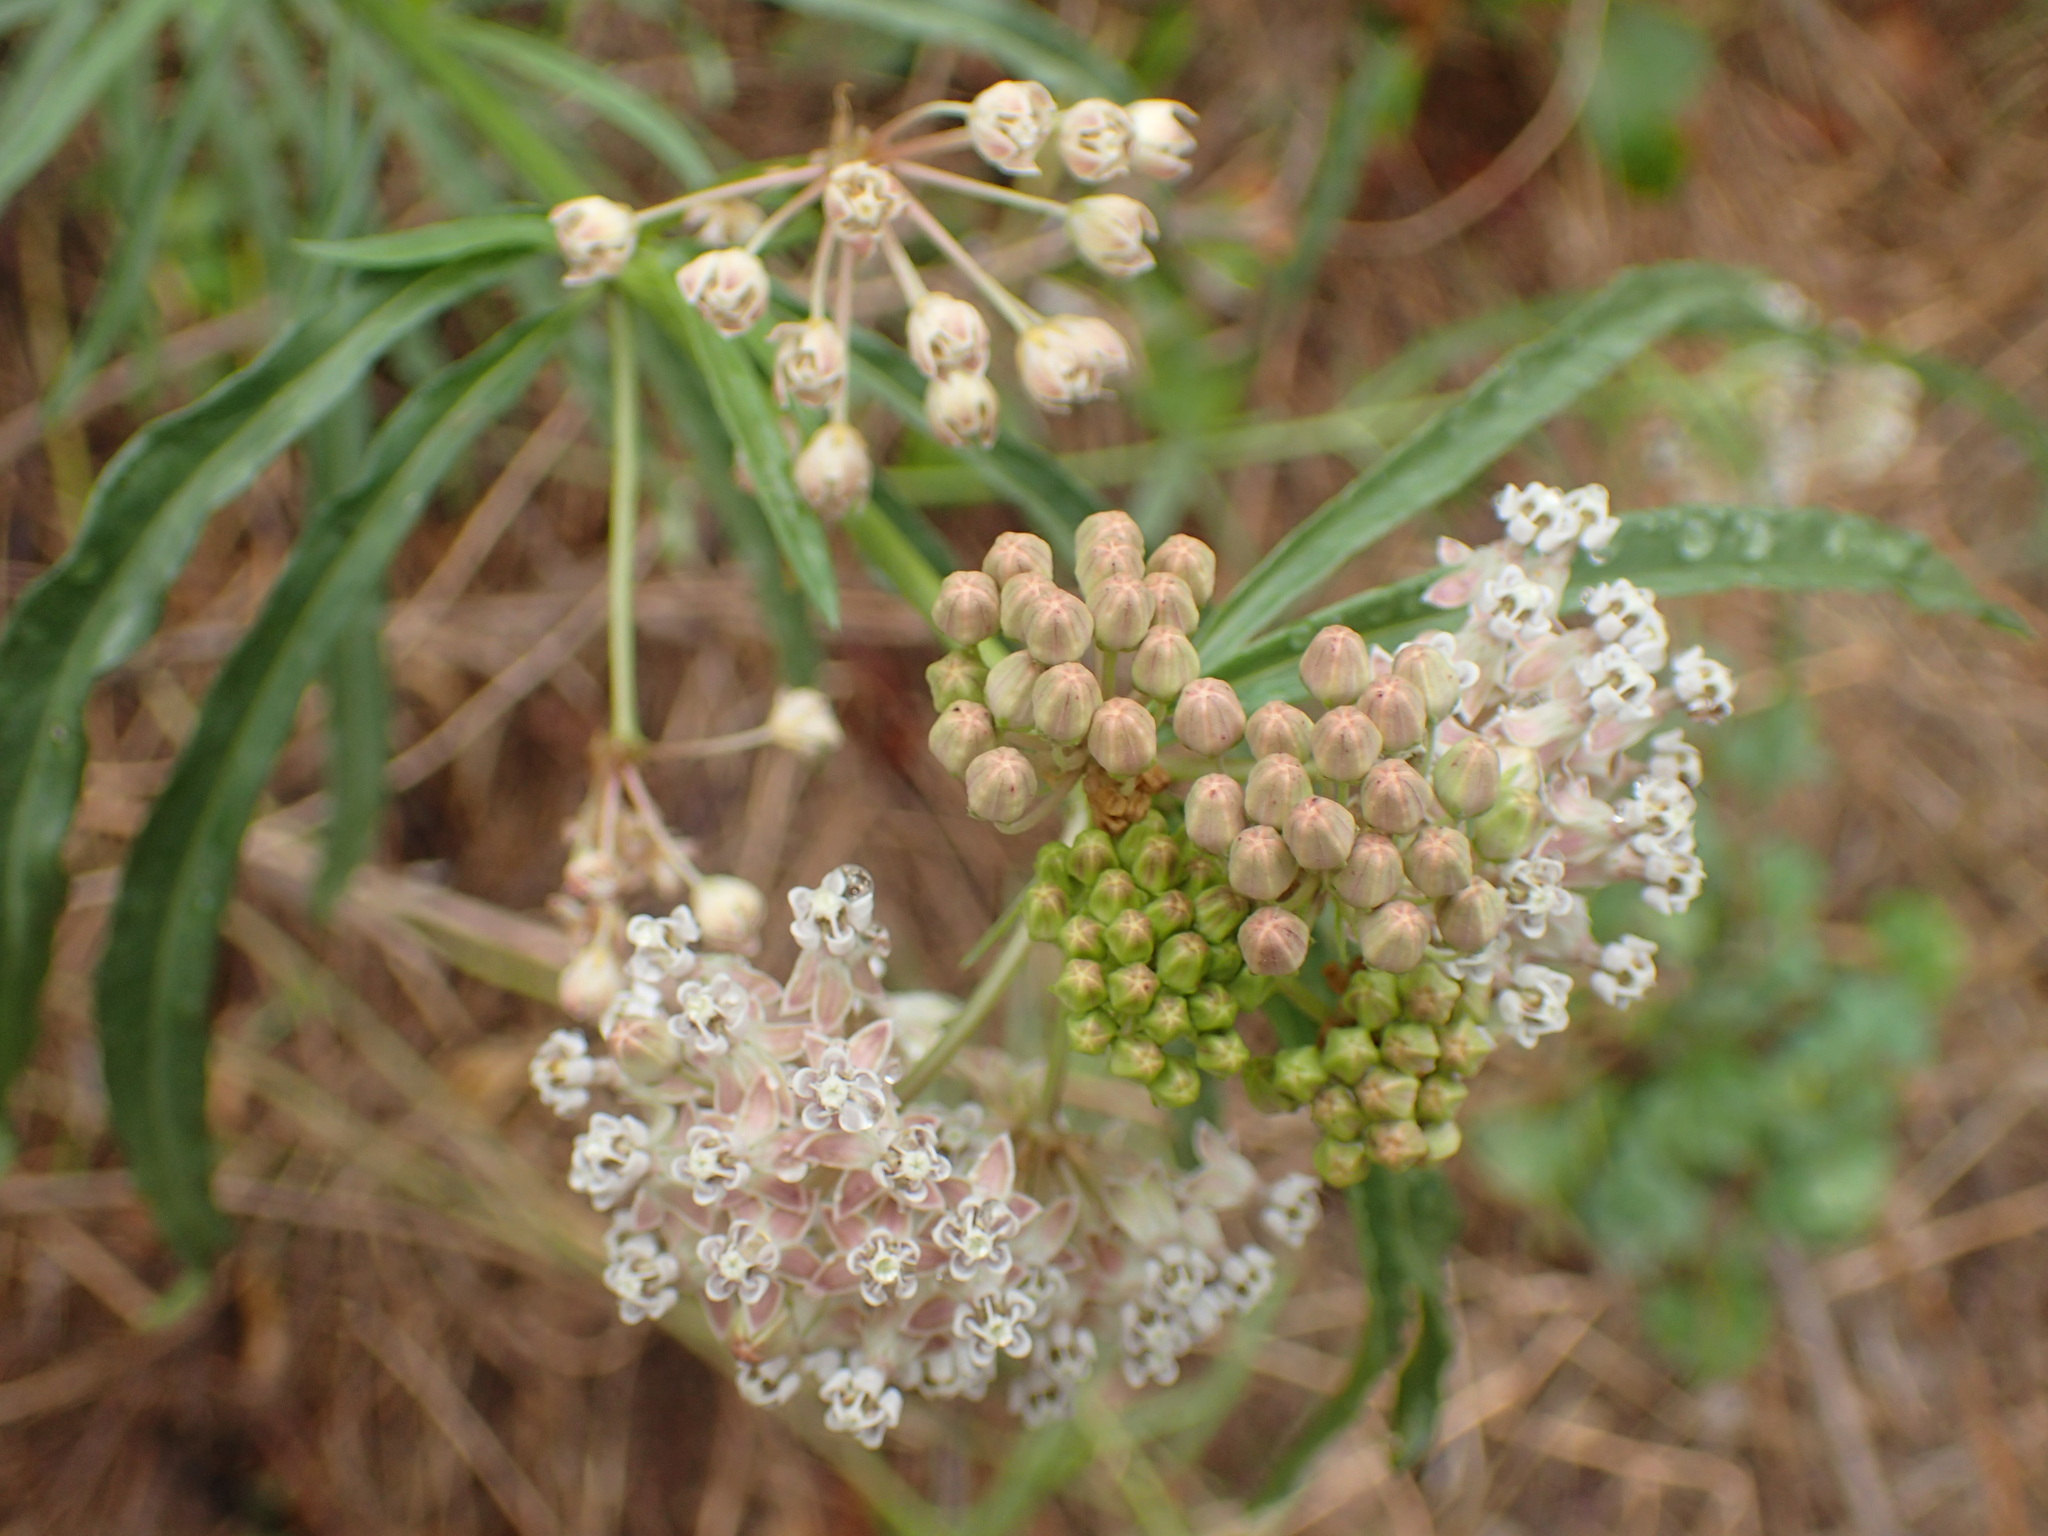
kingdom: Plantae
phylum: Tracheophyta
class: Magnoliopsida
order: Gentianales
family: Apocynaceae
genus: Asclepias
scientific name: Asclepias fascicularis
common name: Mexican milkweed
